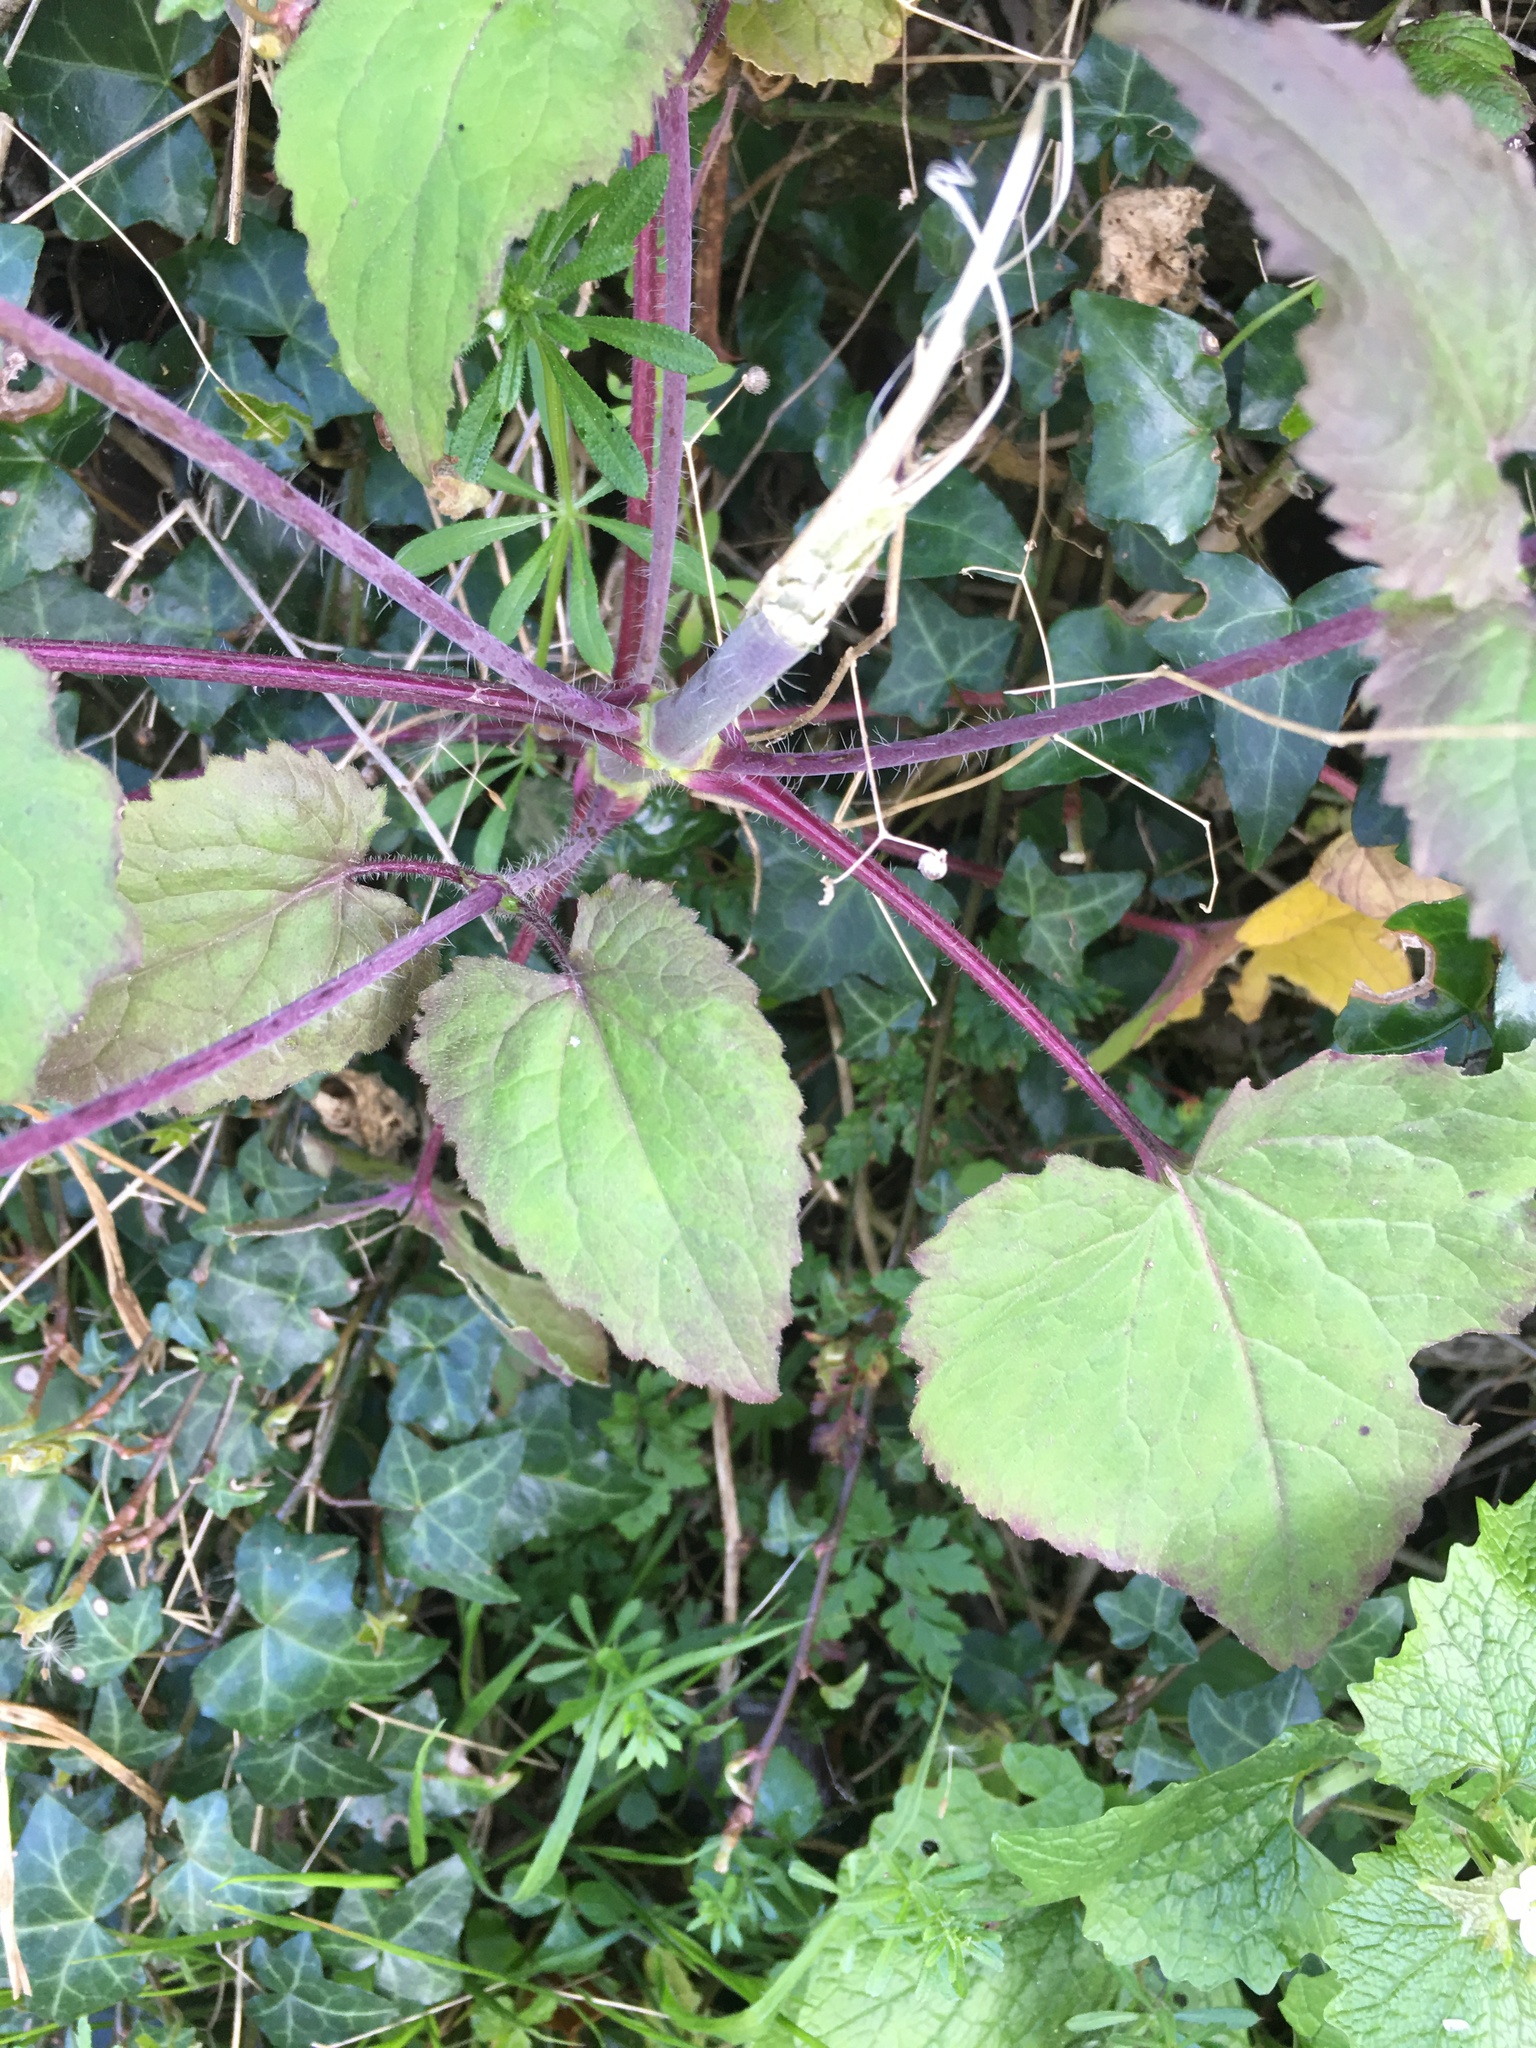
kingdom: Plantae
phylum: Tracheophyta
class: Magnoliopsida
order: Brassicales
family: Brassicaceae
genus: Lunaria
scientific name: Lunaria annua
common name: Honesty
